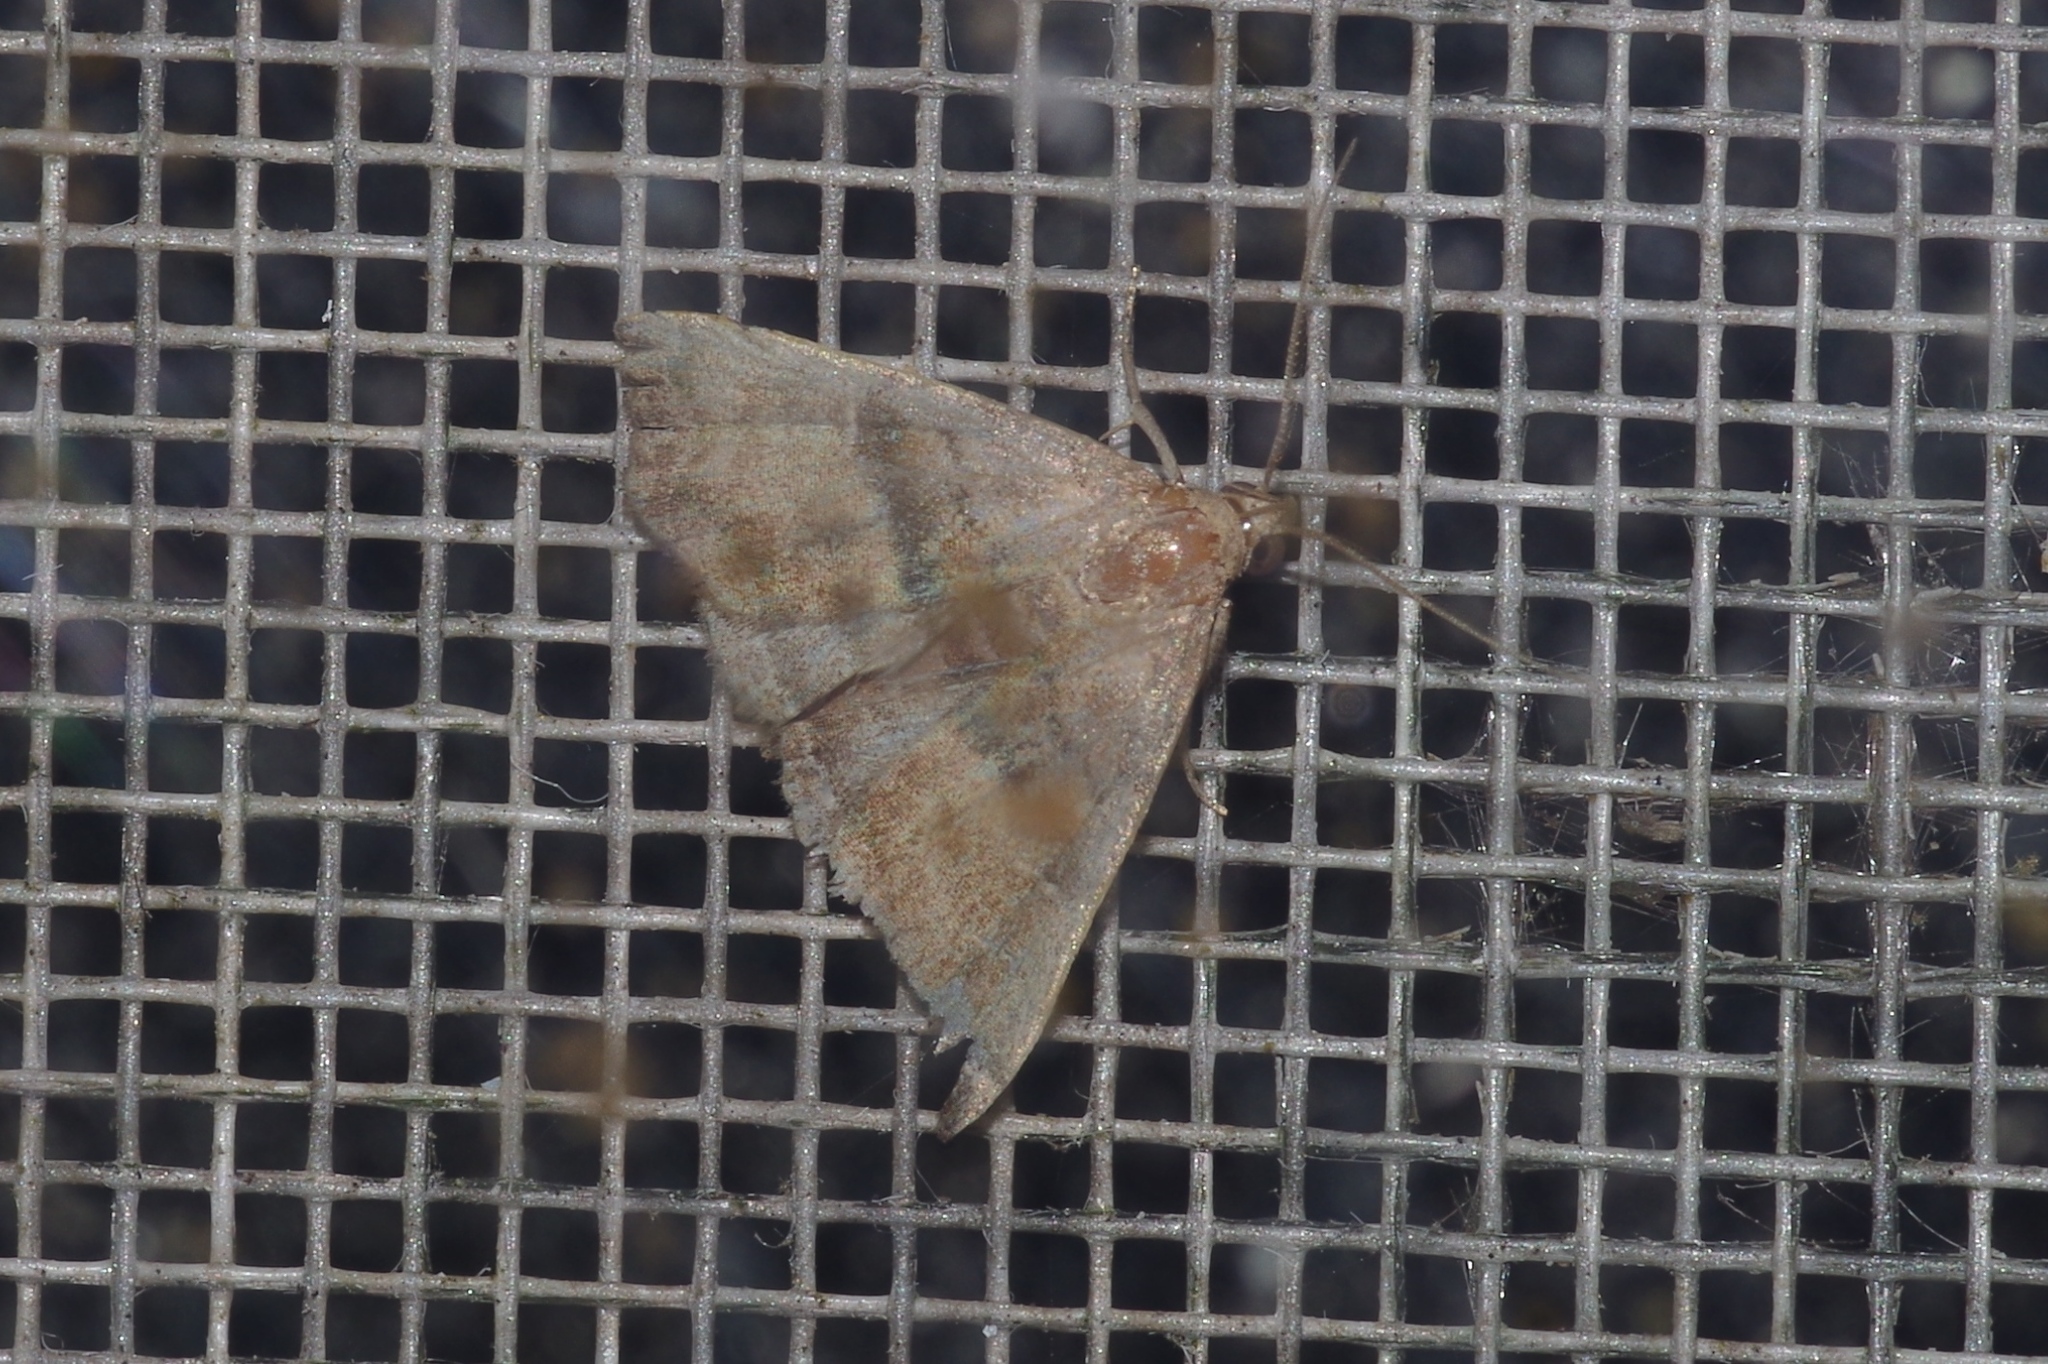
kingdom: Animalia
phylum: Arthropoda
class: Insecta
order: Lepidoptera
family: Erebidae
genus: Polypogon
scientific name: Polypogon Hipoepa fractalis
